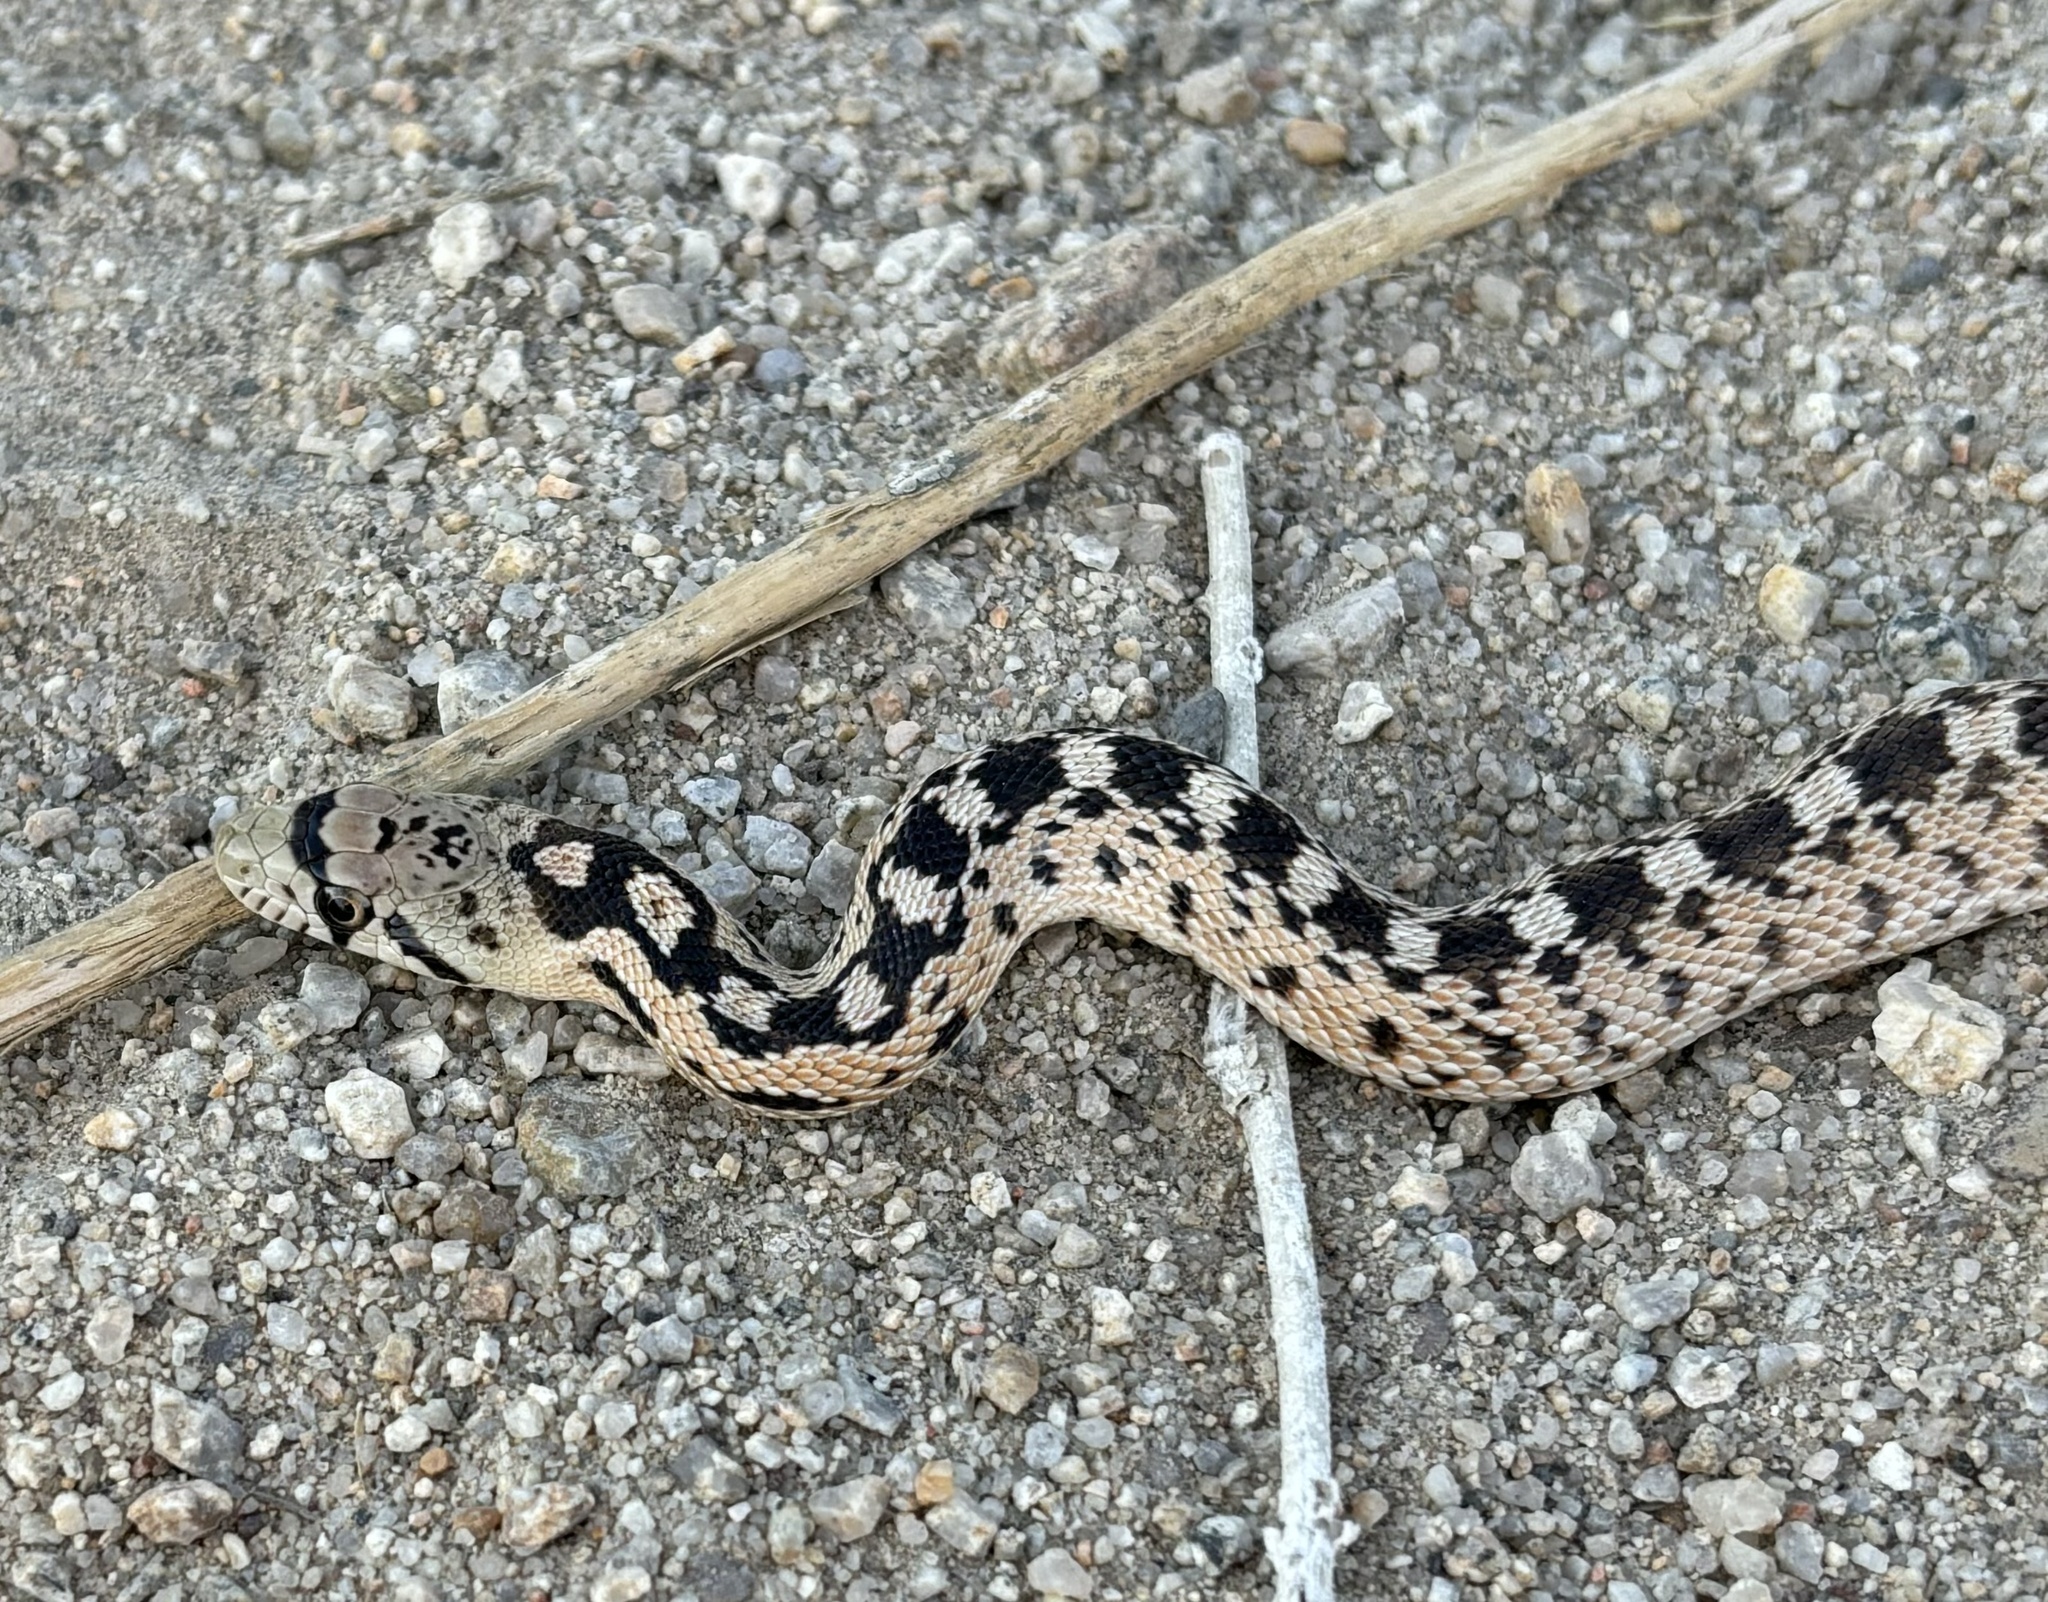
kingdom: Animalia
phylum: Chordata
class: Squamata
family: Colubridae
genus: Pituophis
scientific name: Pituophis catenifer
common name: Gopher snake
